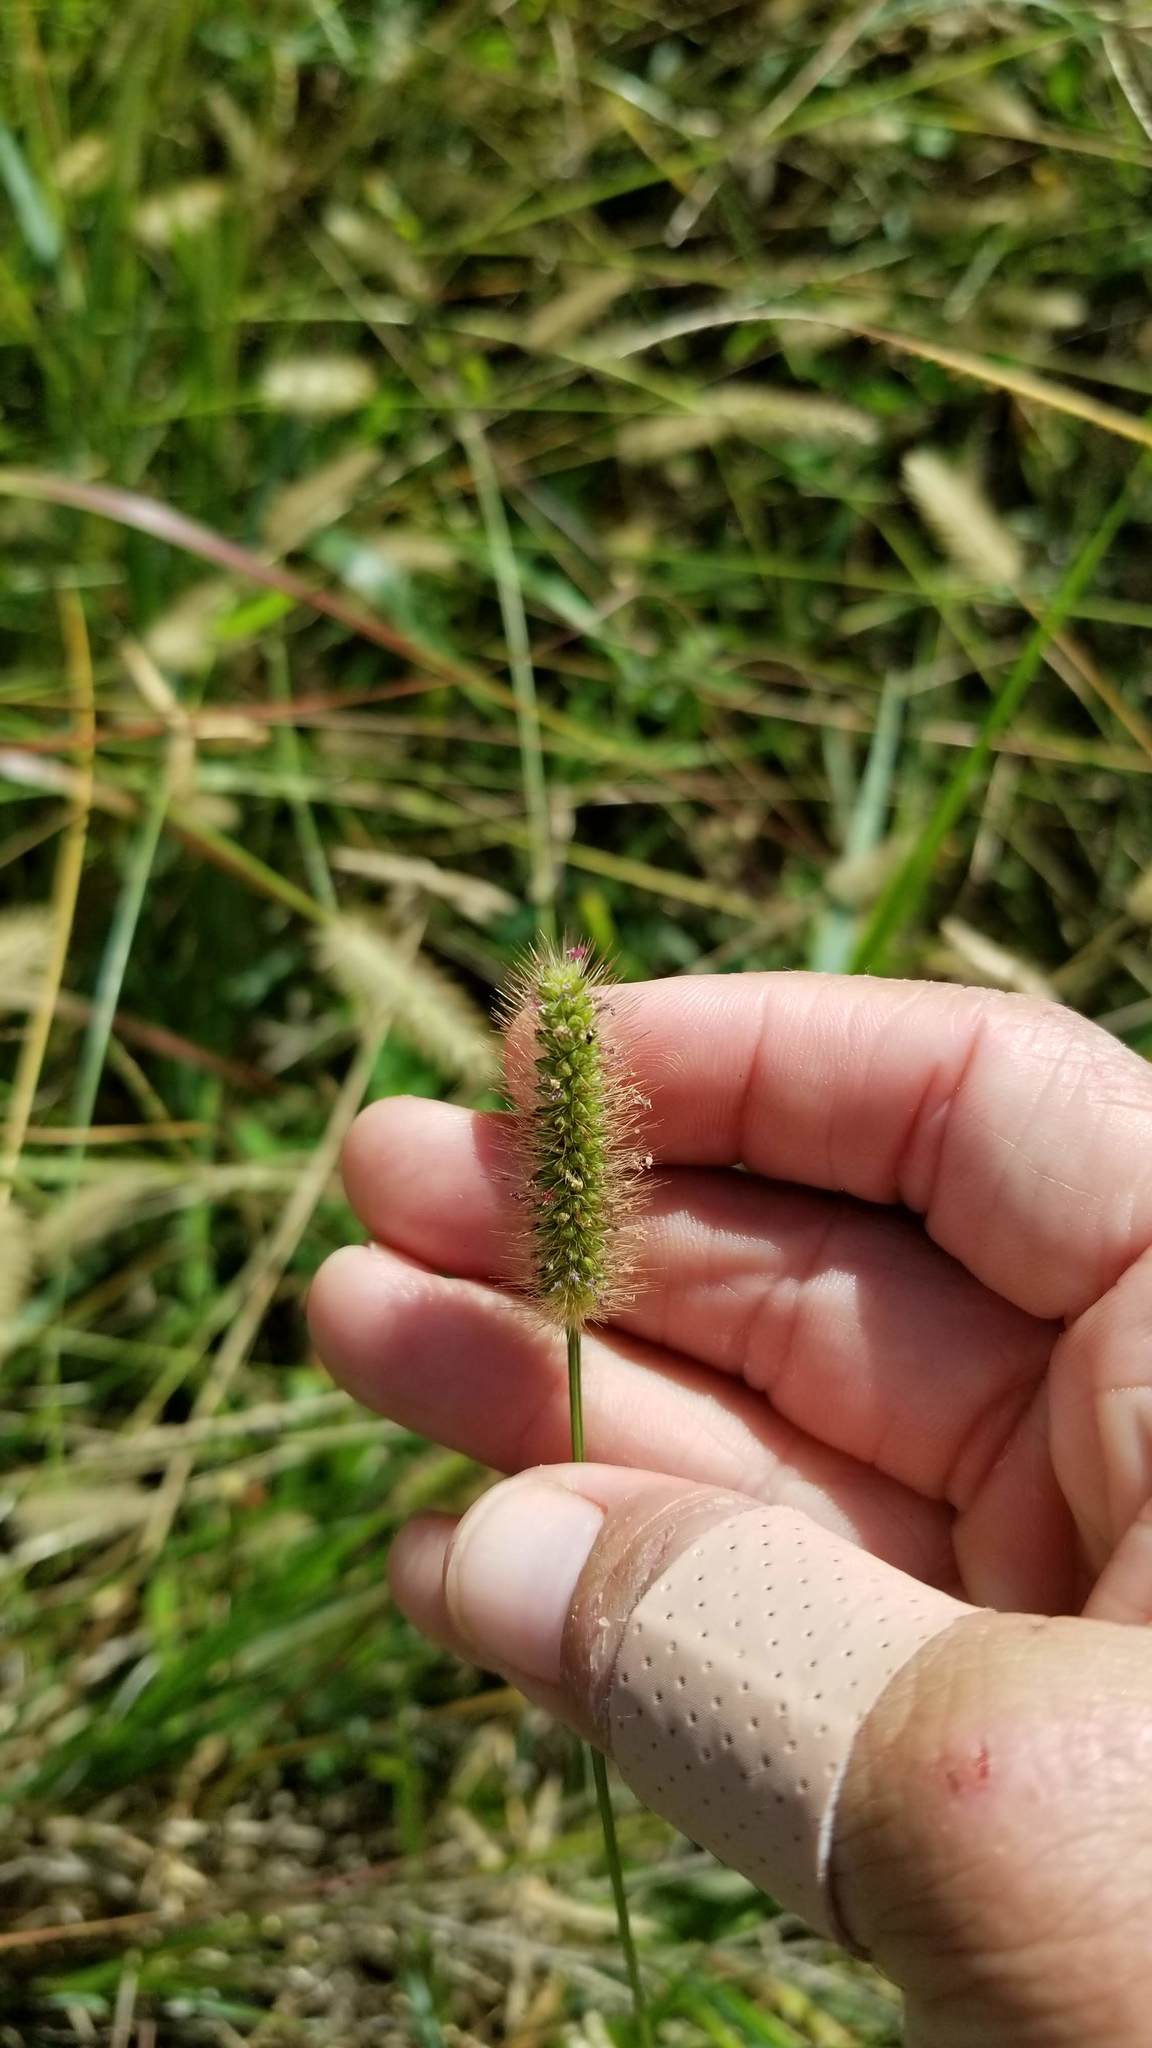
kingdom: Plantae
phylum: Tracheophyta
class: Liliopsida
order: Poales
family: Poaceae
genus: Setaria
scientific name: Setaria parviflora
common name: Knotroot bristle-grass
